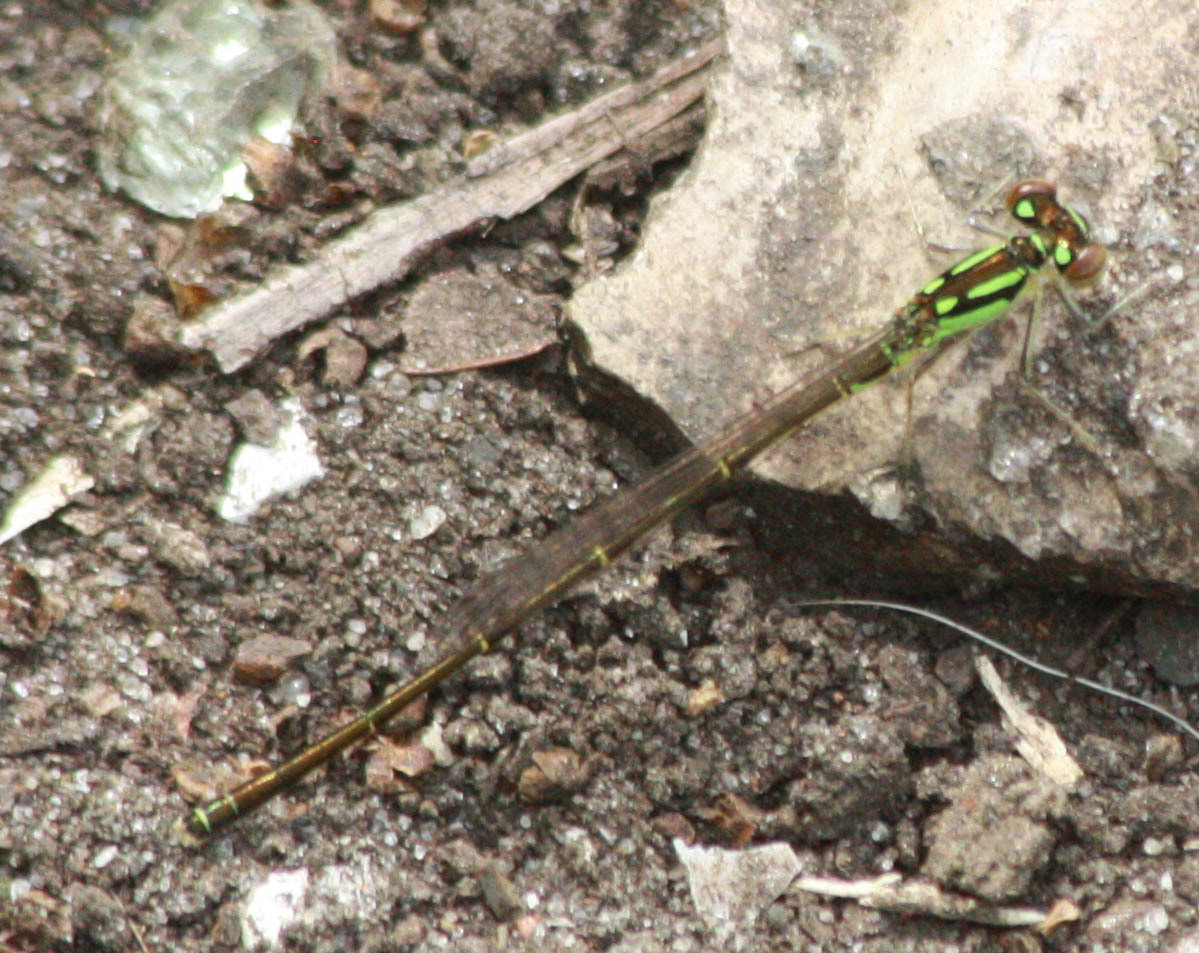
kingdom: Animalia
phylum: Arthropoda
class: Insecta
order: Odonata
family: Coenagrionidae
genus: Ischnura
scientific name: Ischnura posita
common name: Fragile forktail
